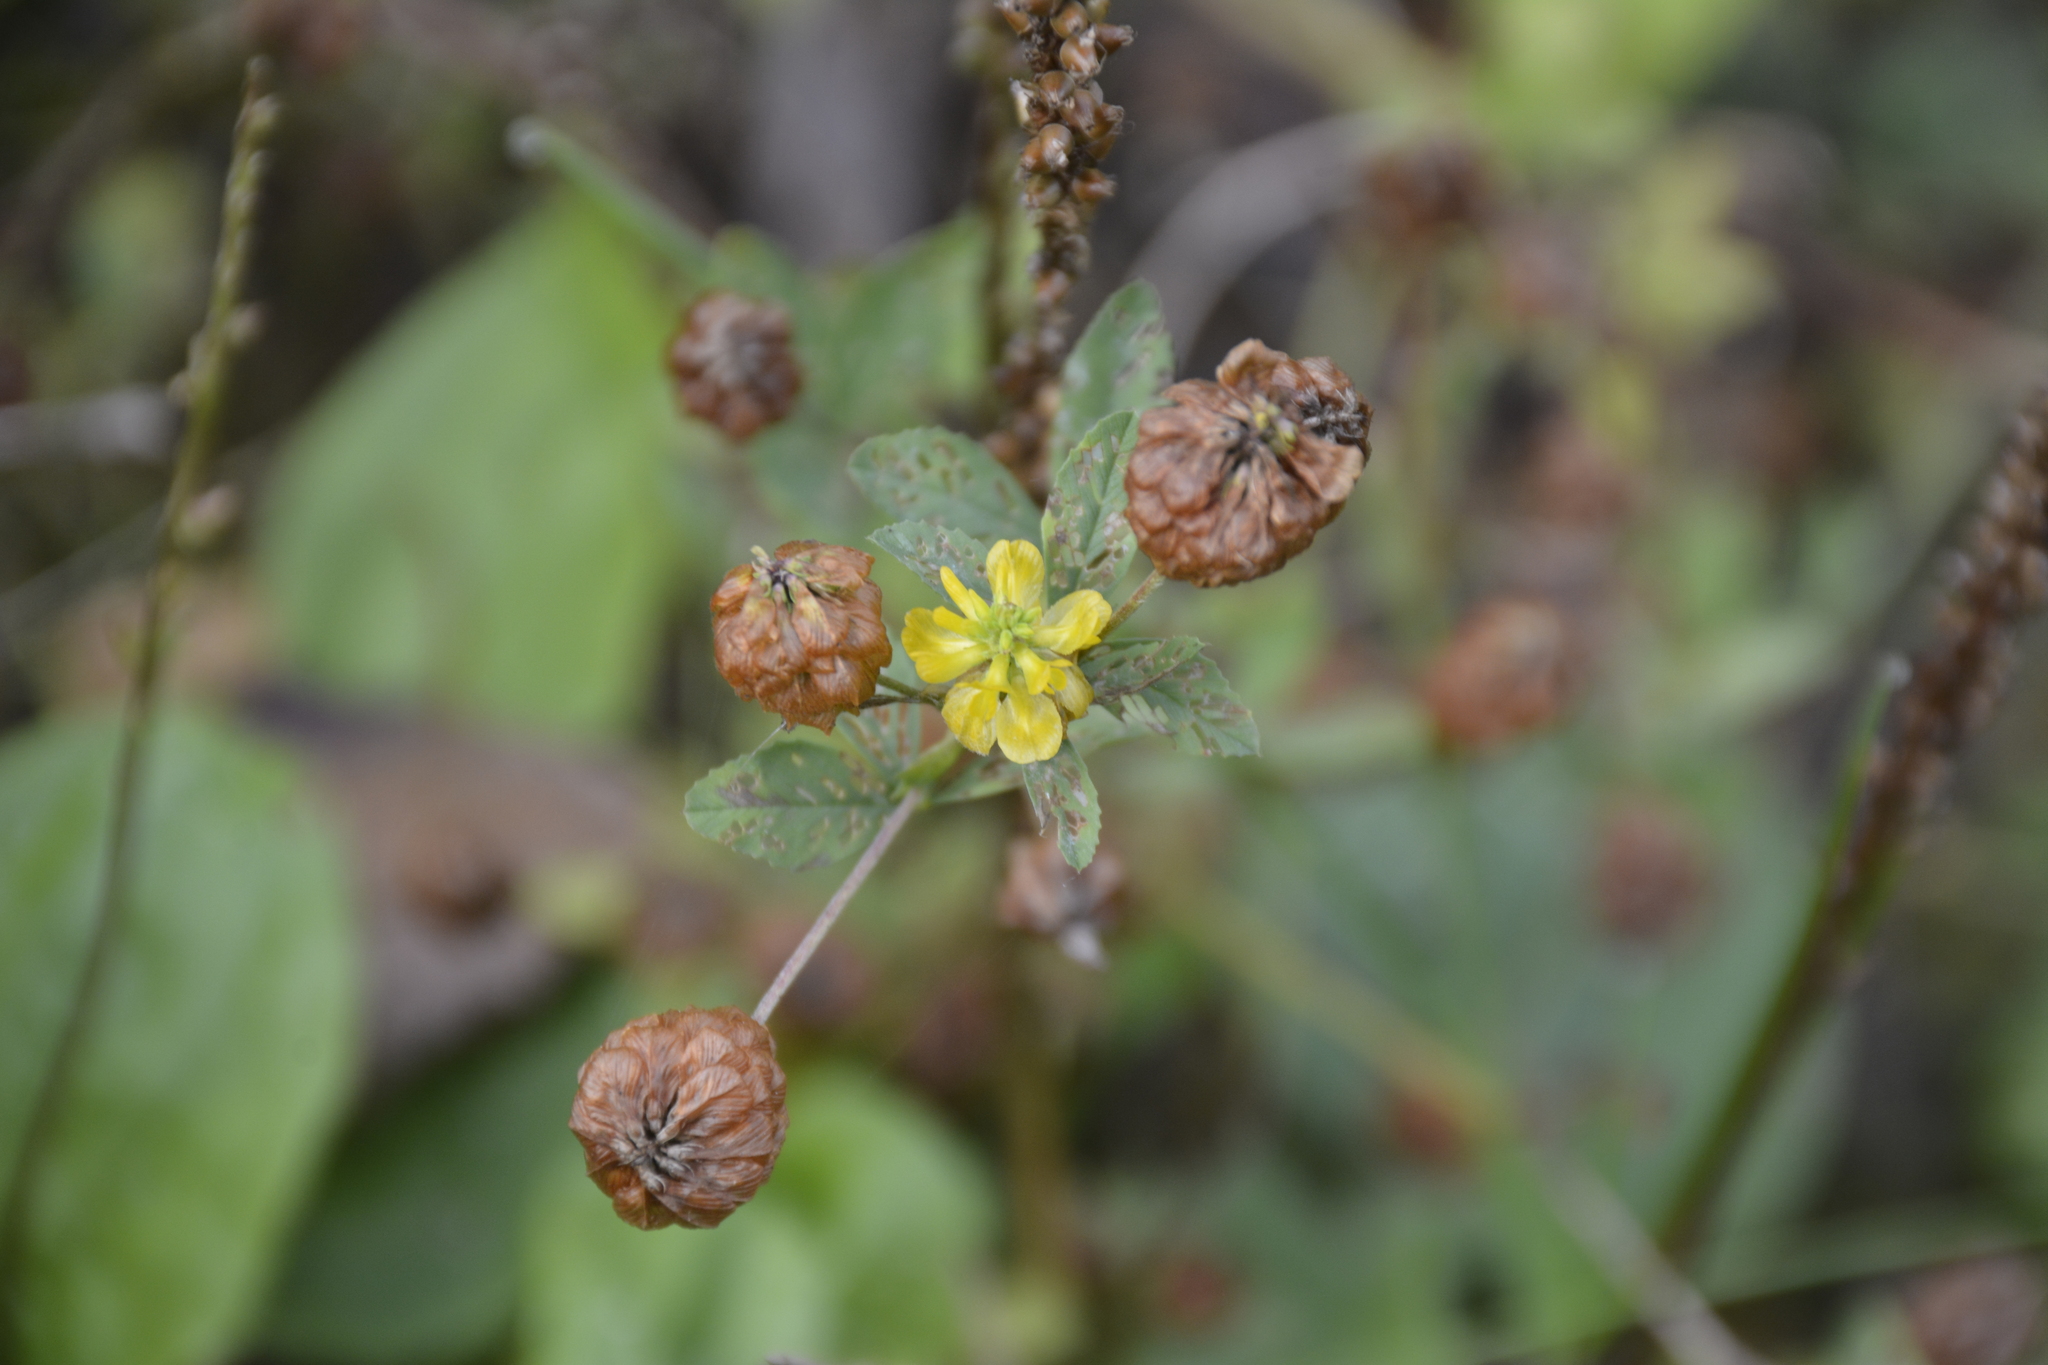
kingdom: Plantae
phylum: Tracheophyta
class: Magnoliopsida
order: Fabales
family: Fabaceae
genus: Trifolium
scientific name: Trifolium aureum
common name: Golden clover
